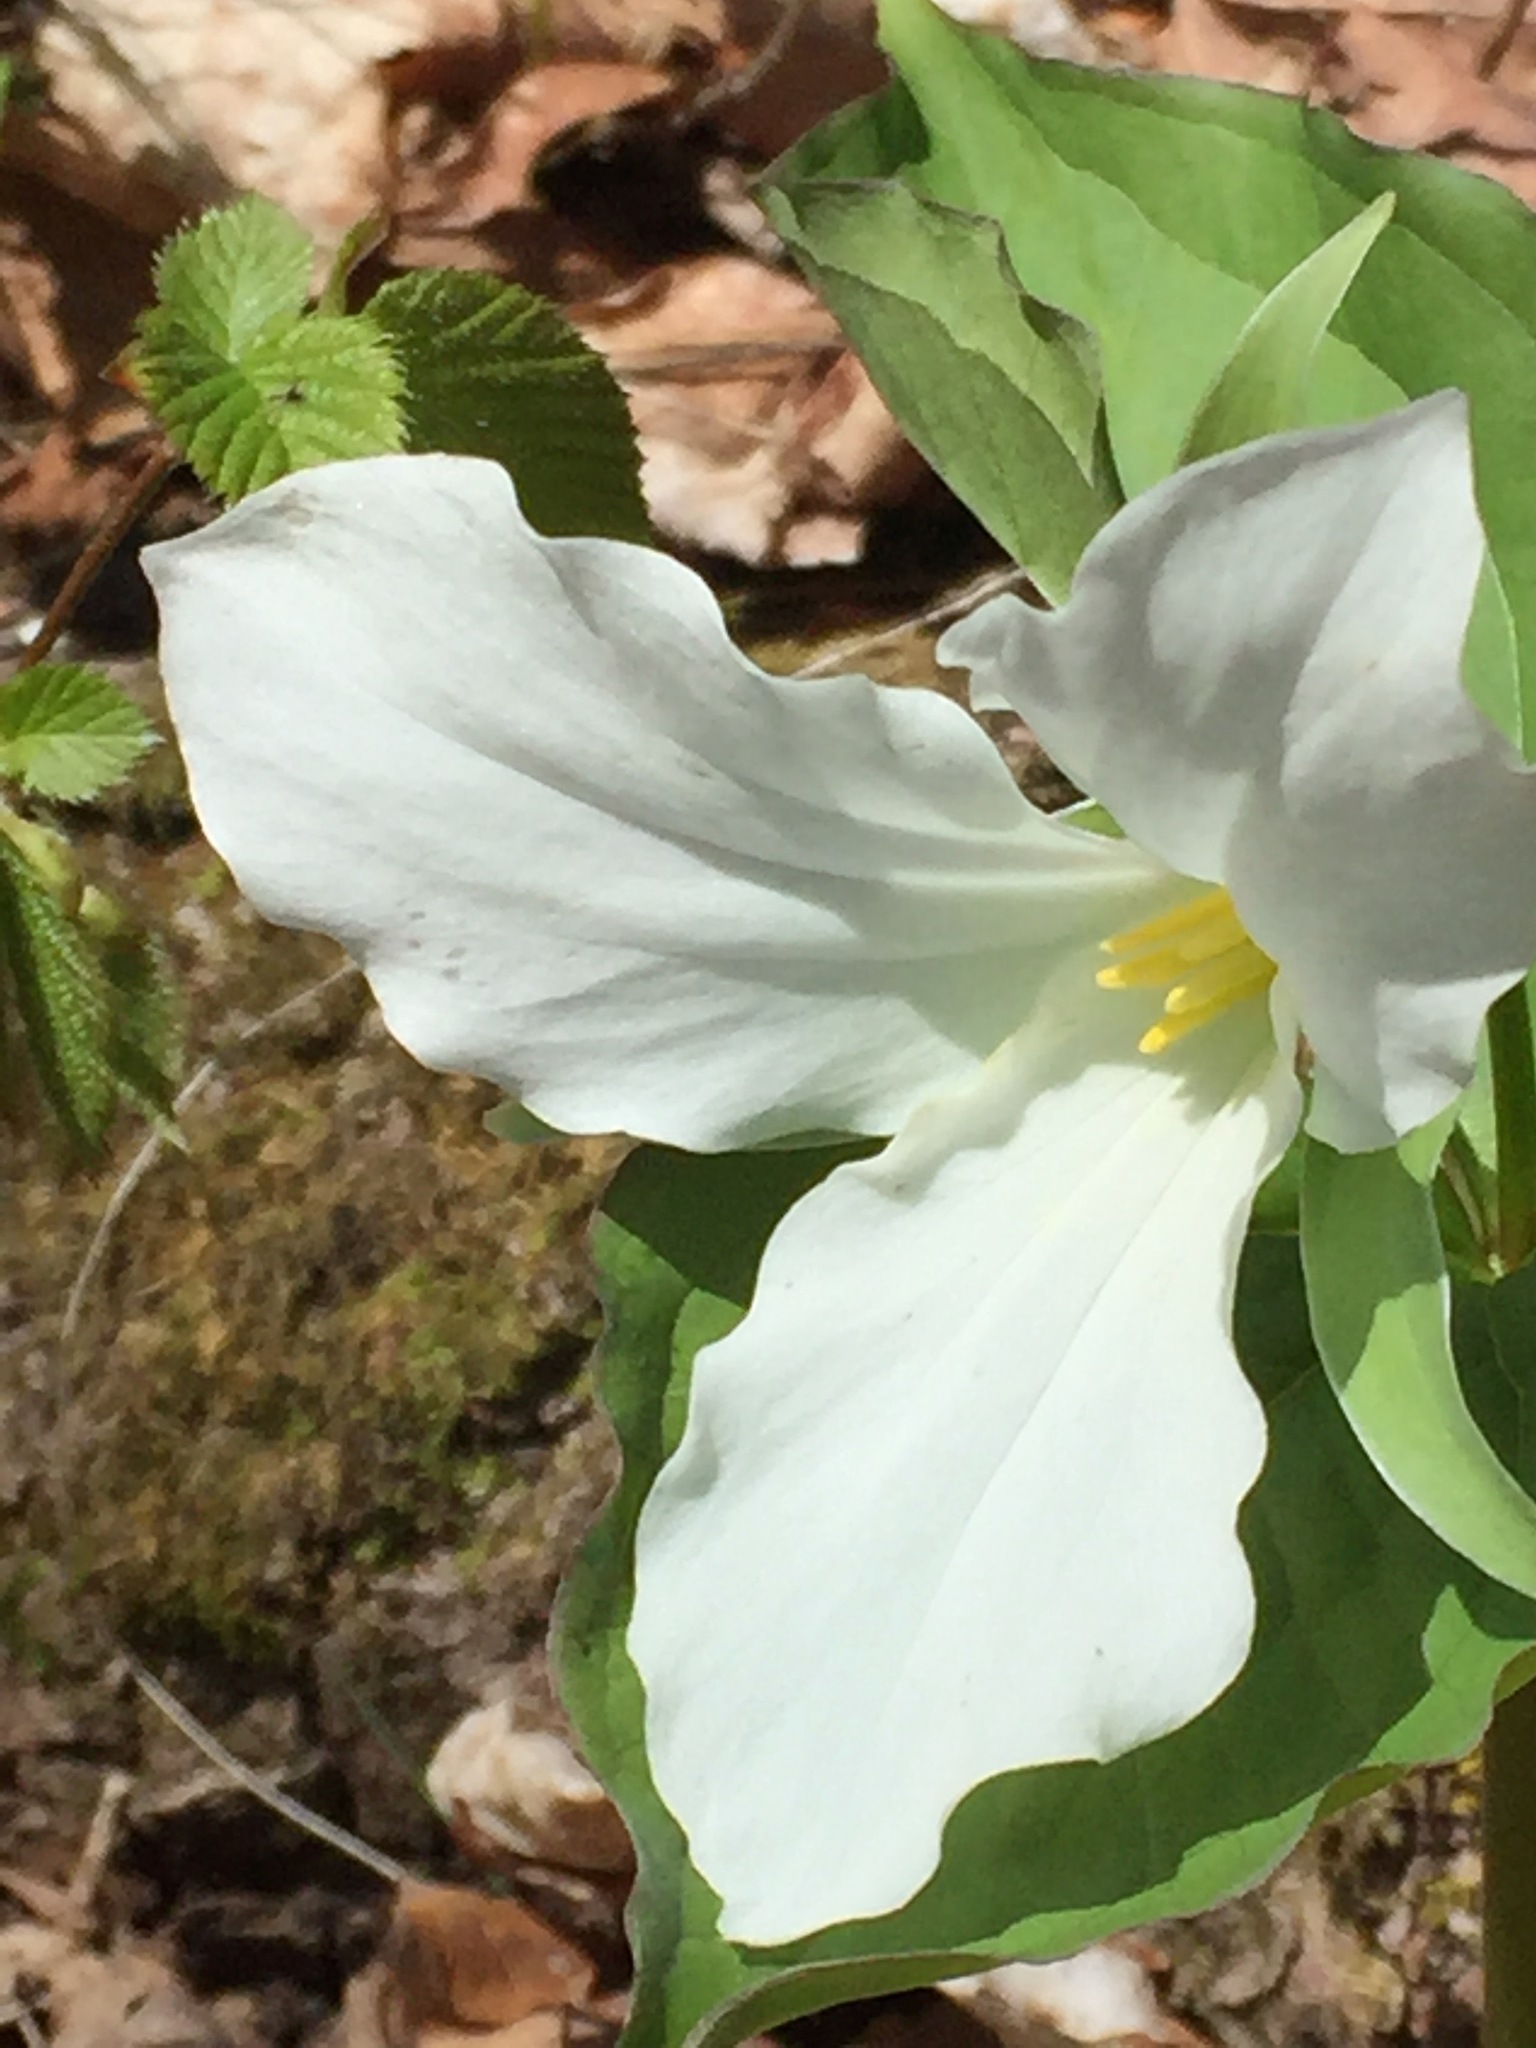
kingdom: Plantae
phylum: Tracheophyta
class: Liliopsida
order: Liliales
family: Melanthiaceae
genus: Trillium
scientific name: Trillium grandiflorum
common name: Great white trillium
